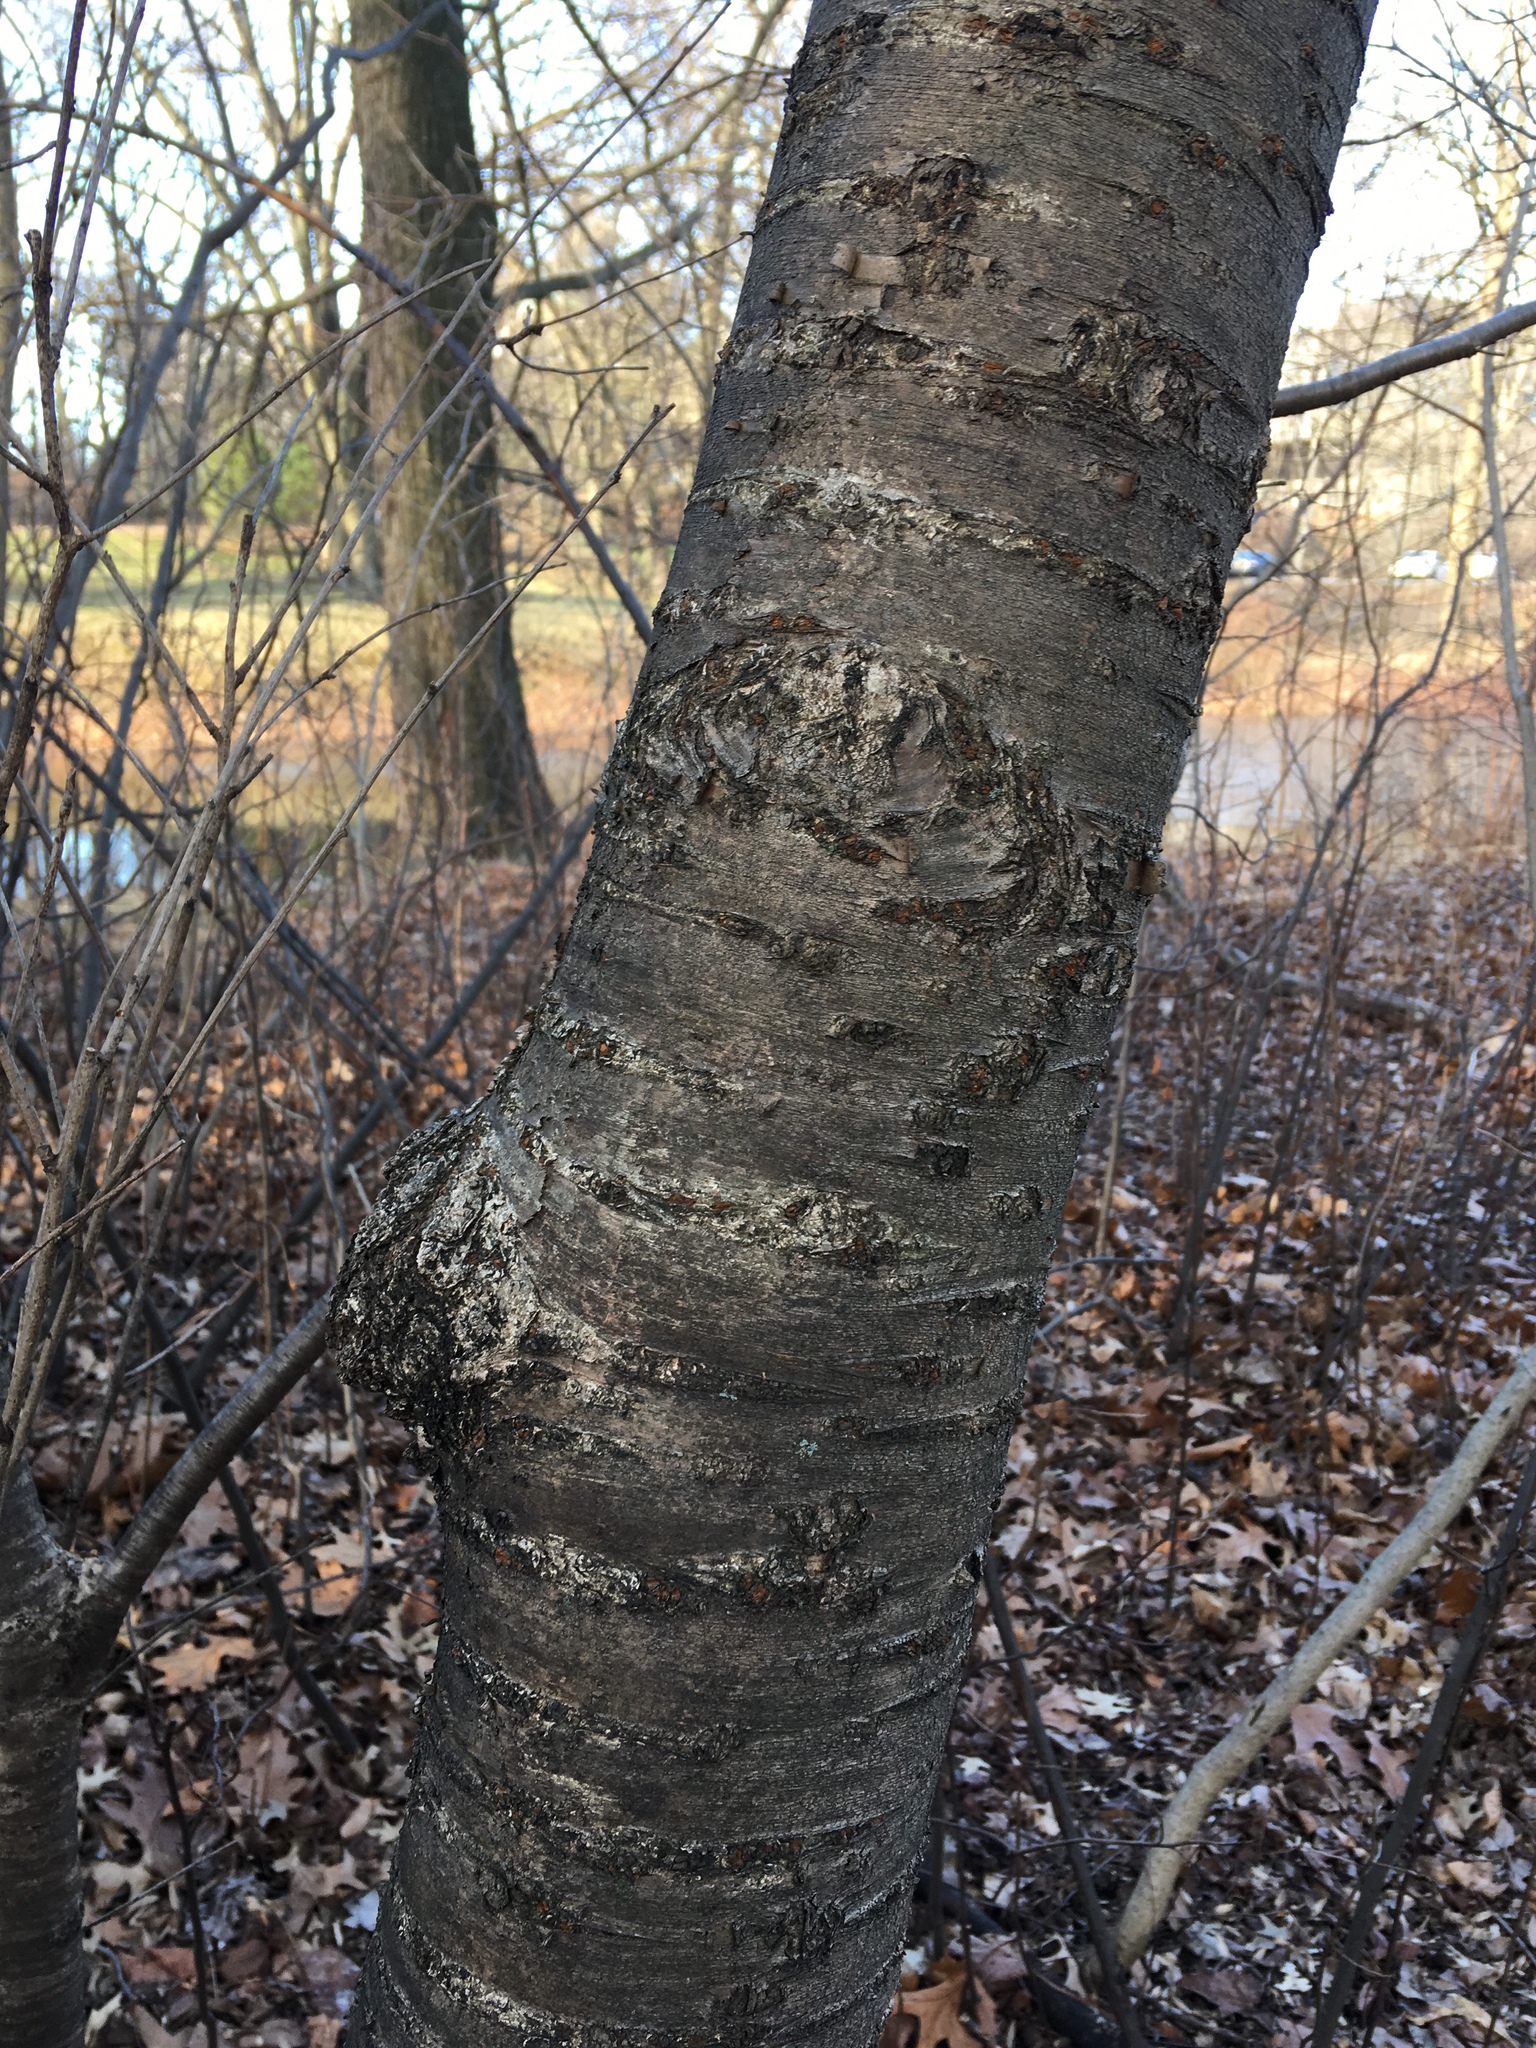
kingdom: Plantae
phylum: Tracheophyta
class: Magnoliopsida
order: Rosales
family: Rosaceae
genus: Prunus
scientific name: Prunus yedoensis
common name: Yoshino cherry
